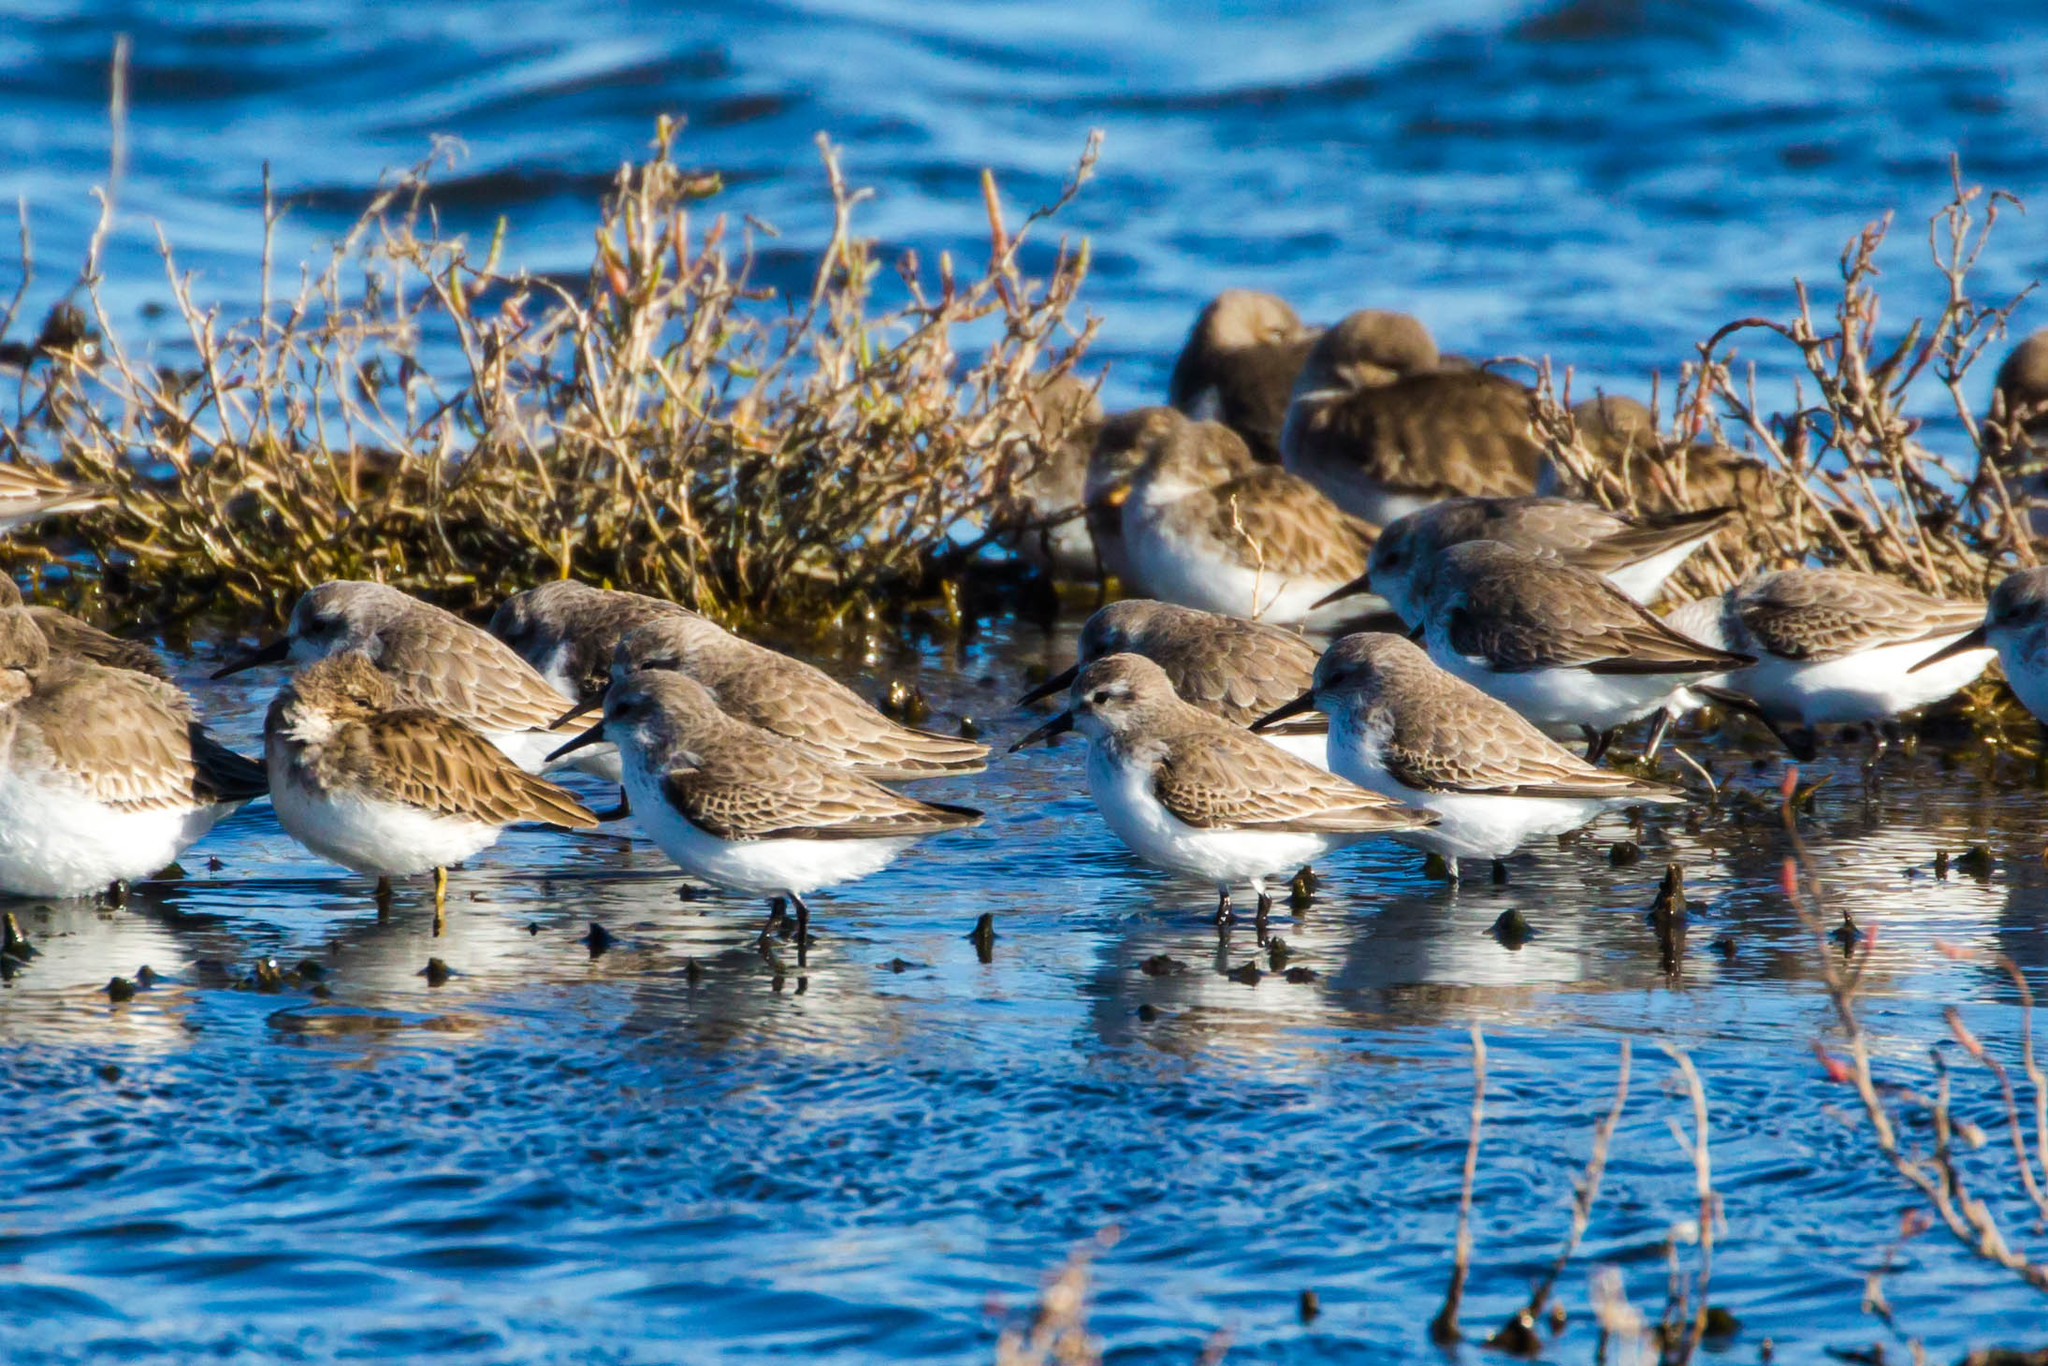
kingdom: Animalia
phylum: Chordata
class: Aves
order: Charadriiformes
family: Scolopacidae
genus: Calidris
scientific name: Calidris mauri
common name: Western sandpiper
